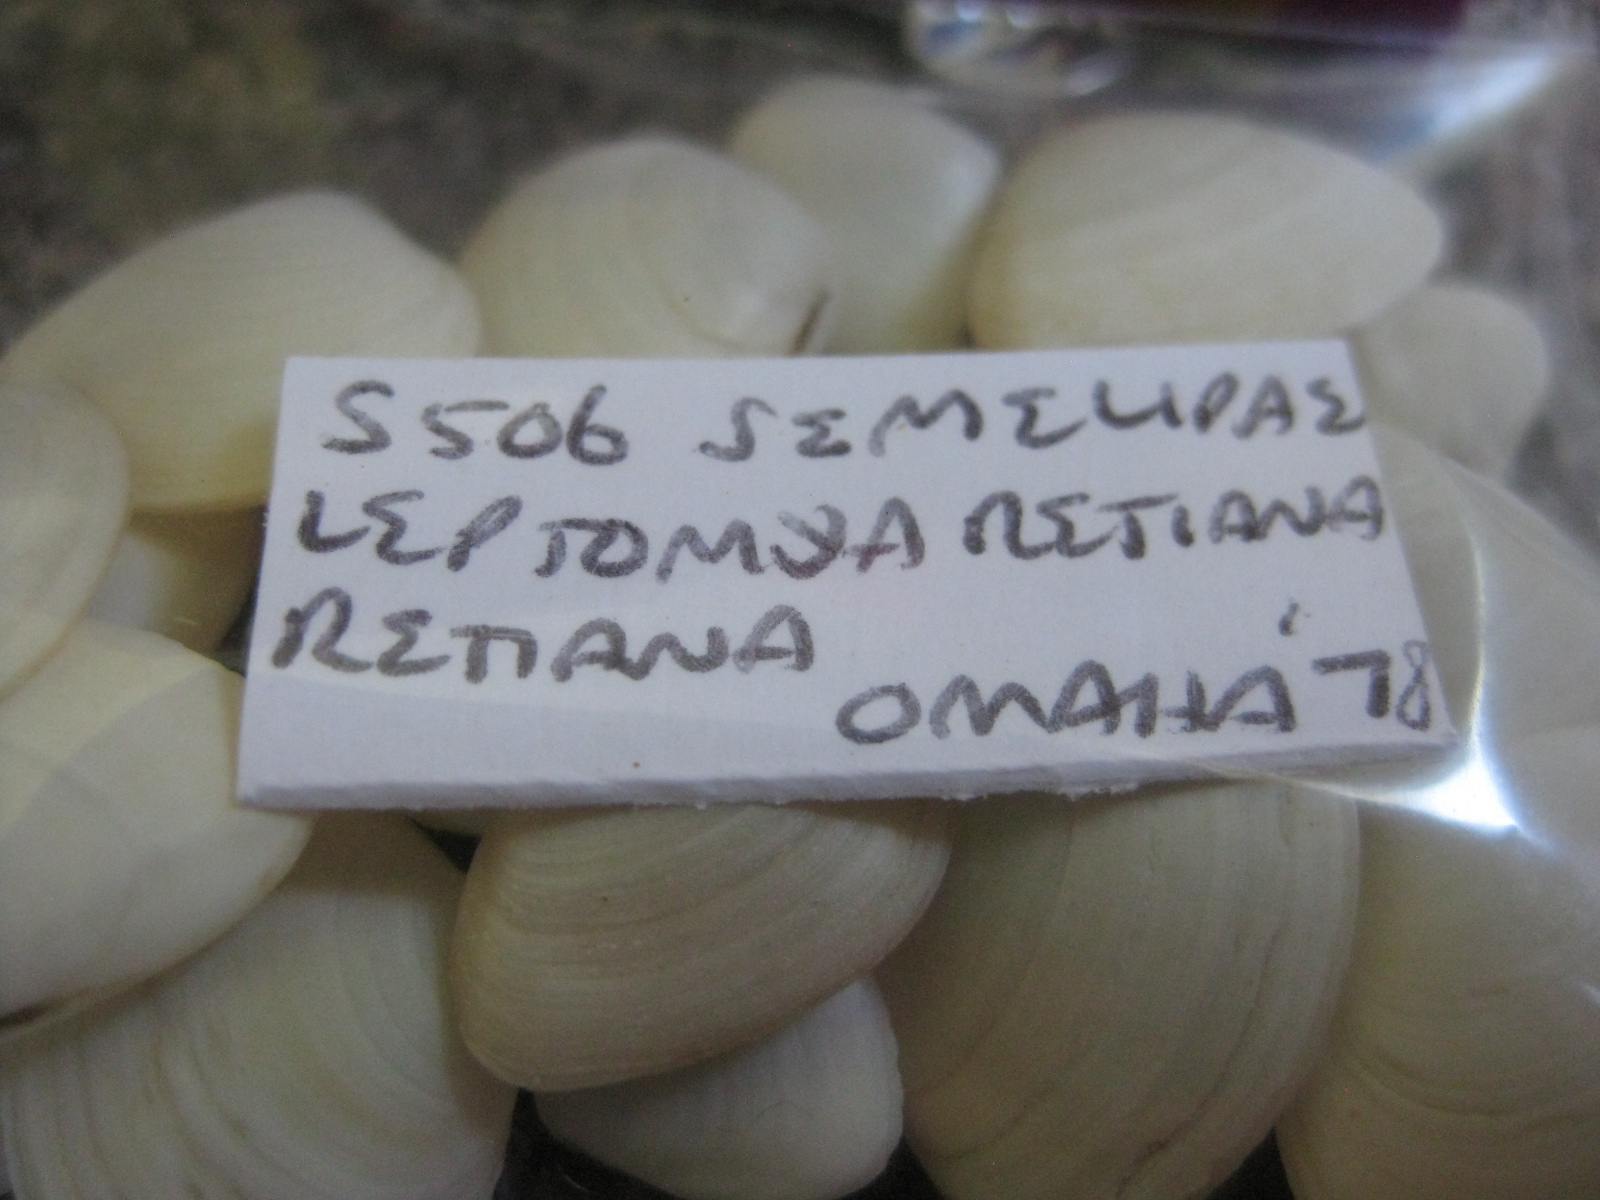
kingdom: Animalia
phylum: Mollusca
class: Bivalvia
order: Cardiida
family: Semelidae
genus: Leptomya
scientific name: Leptomya retiaria
